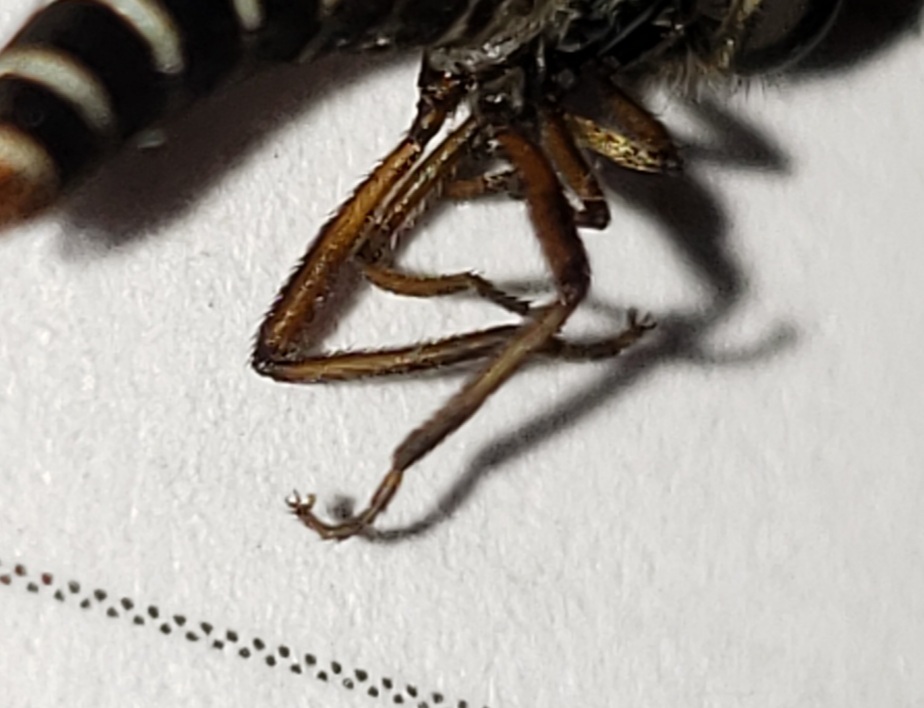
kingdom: Animalia
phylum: Arthropoda
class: Insecta
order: Diptera
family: Mydidae
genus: Nemomydas
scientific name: Nemomydas melanopogon
